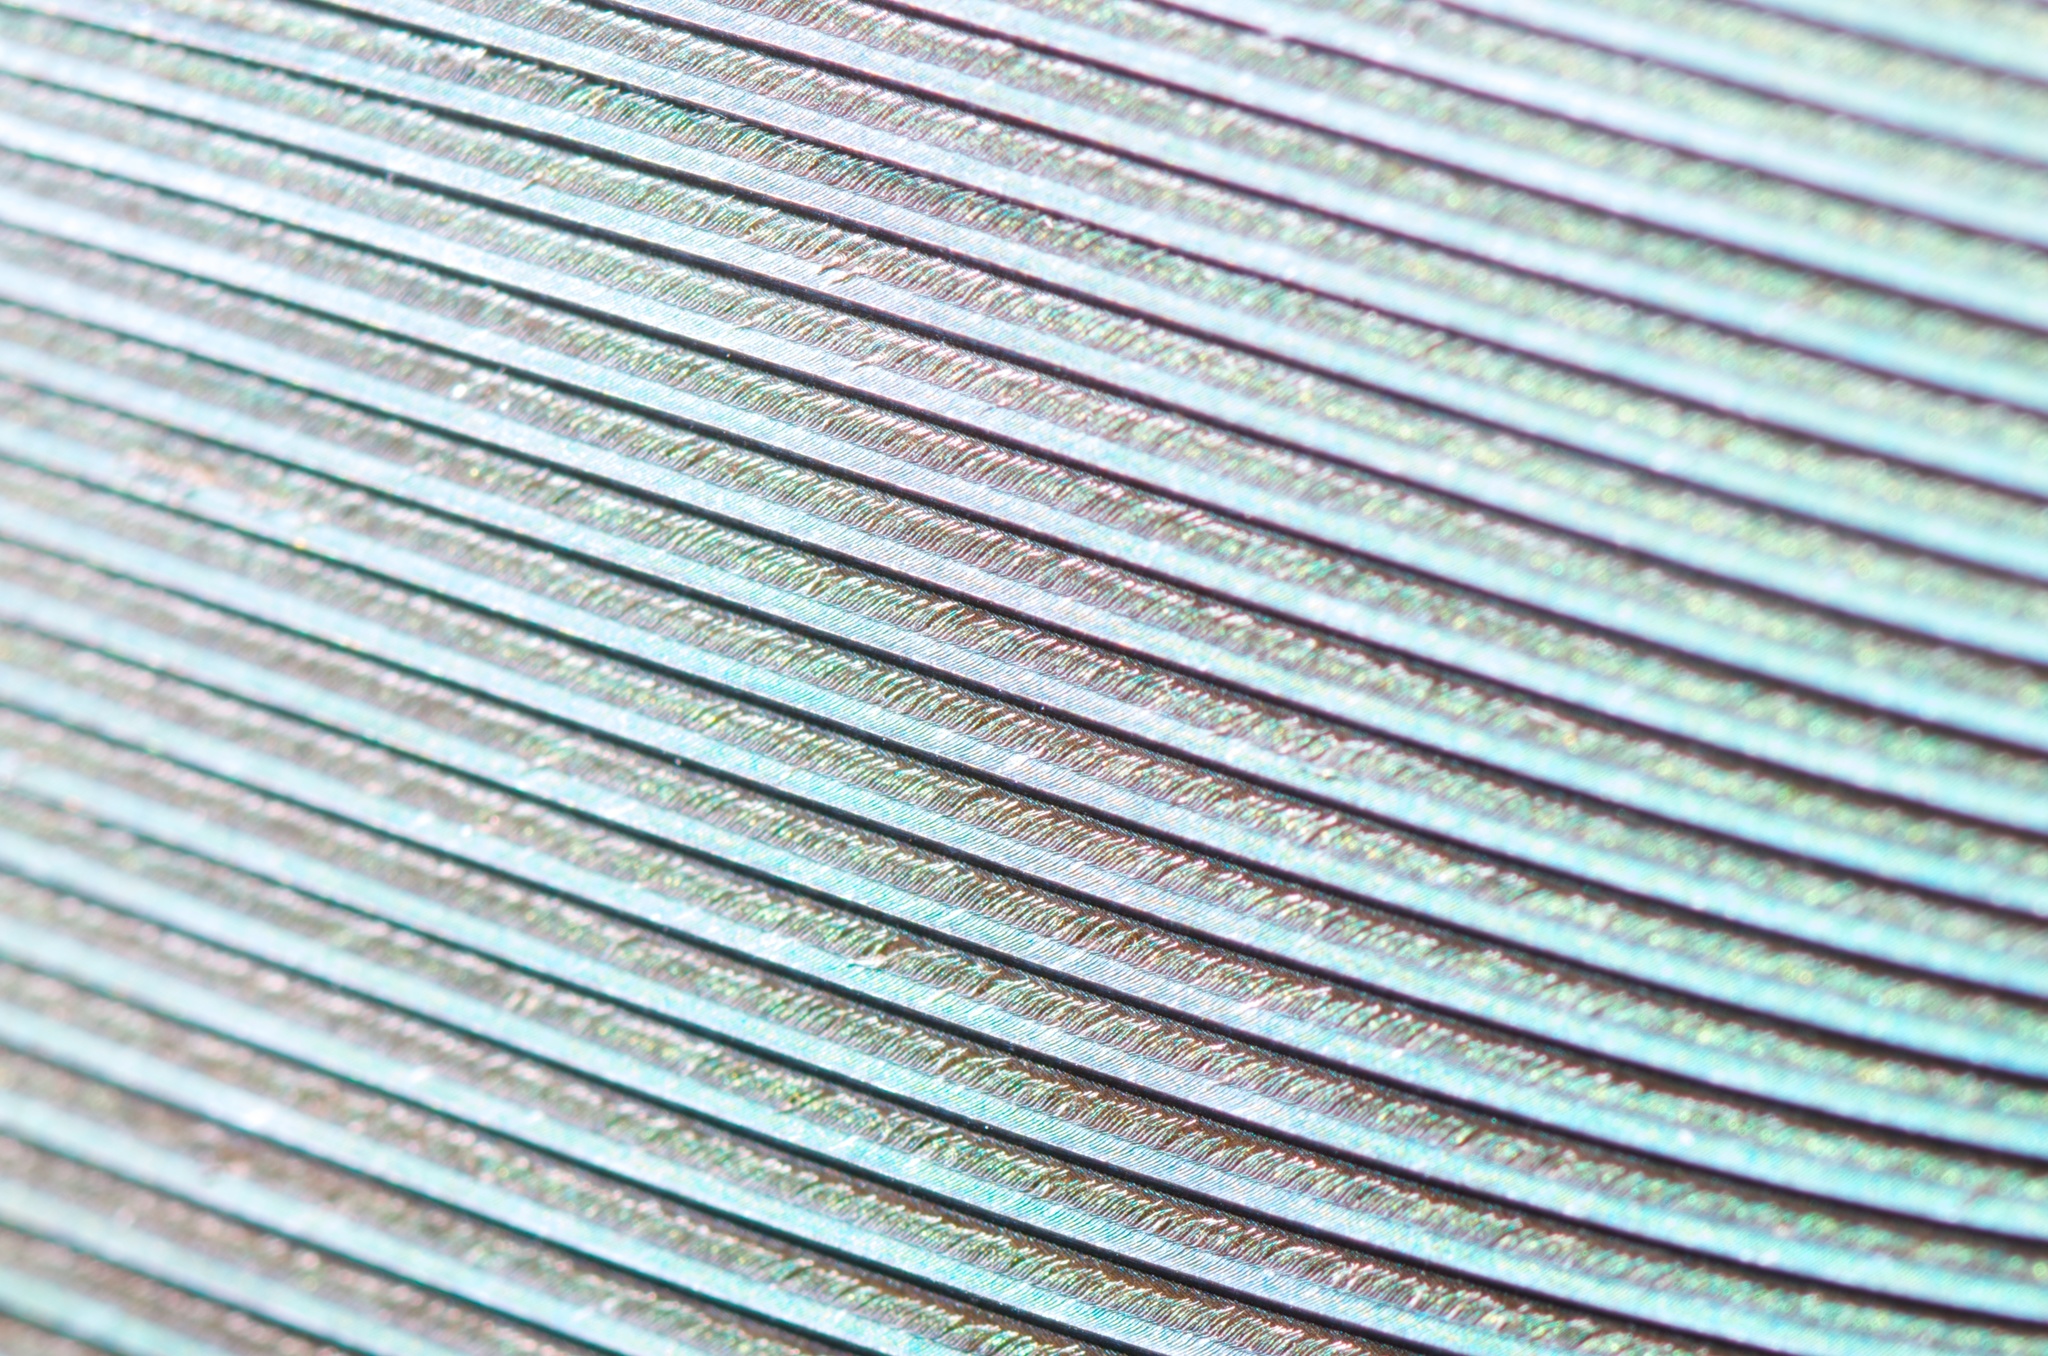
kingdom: Animalia
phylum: Chordata
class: Aves
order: Columbiformes
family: Columbidae
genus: Hemiphaga
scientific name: Hemiphaga novaeseelandiae
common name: New zealand pigeon
